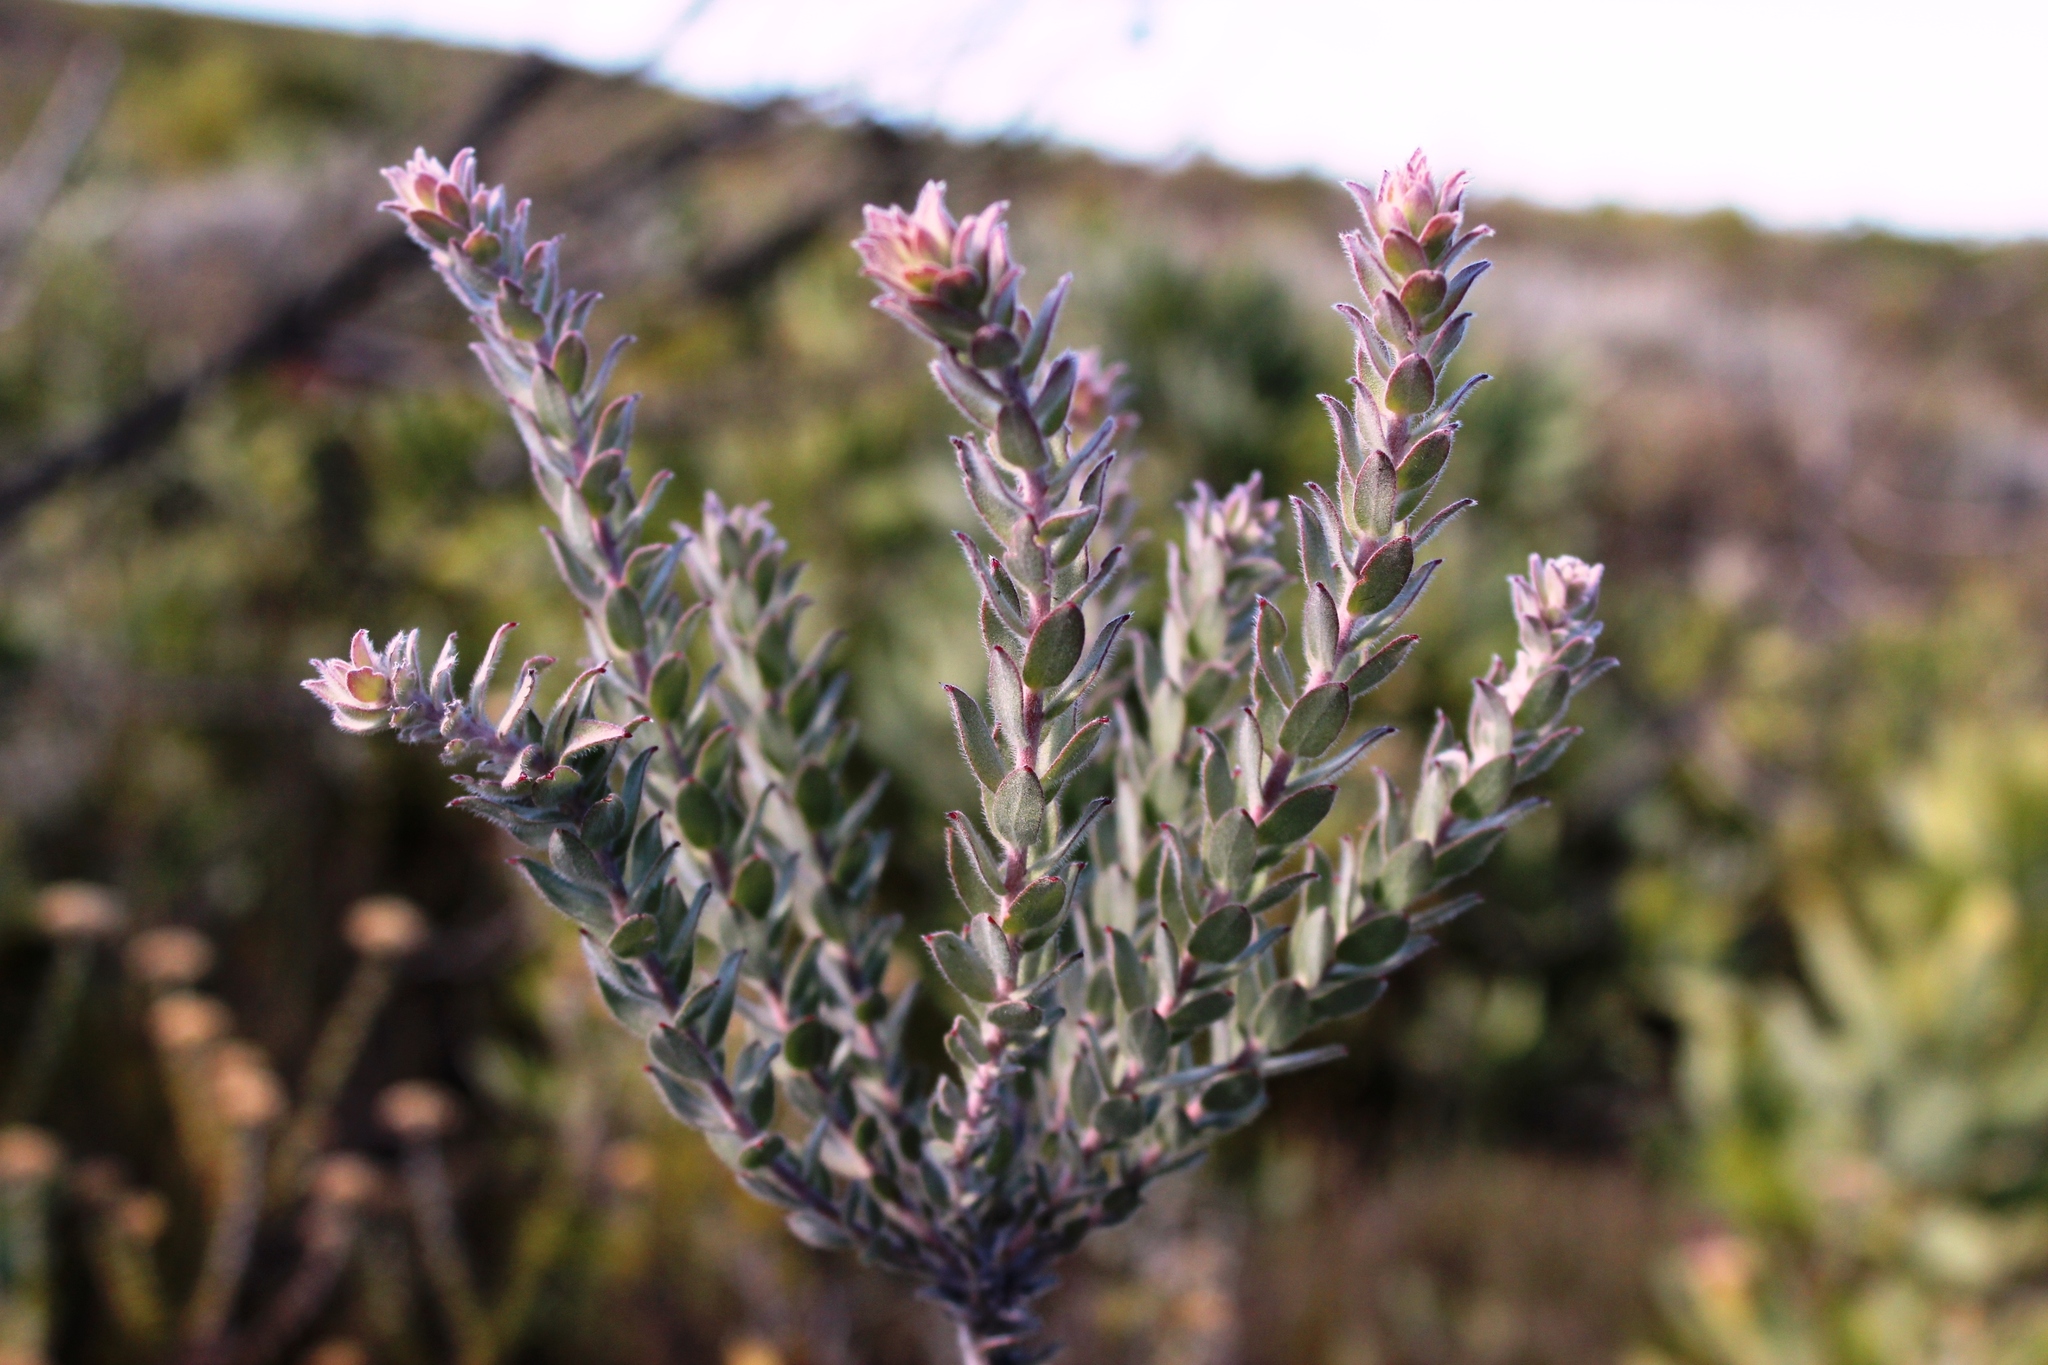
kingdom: Plantae
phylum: Tracheophyta
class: Magnoliopsida
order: Proteales
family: Proteaceae
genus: Leucospermum
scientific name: Leucospermum calligerum
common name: Arid pincushion
